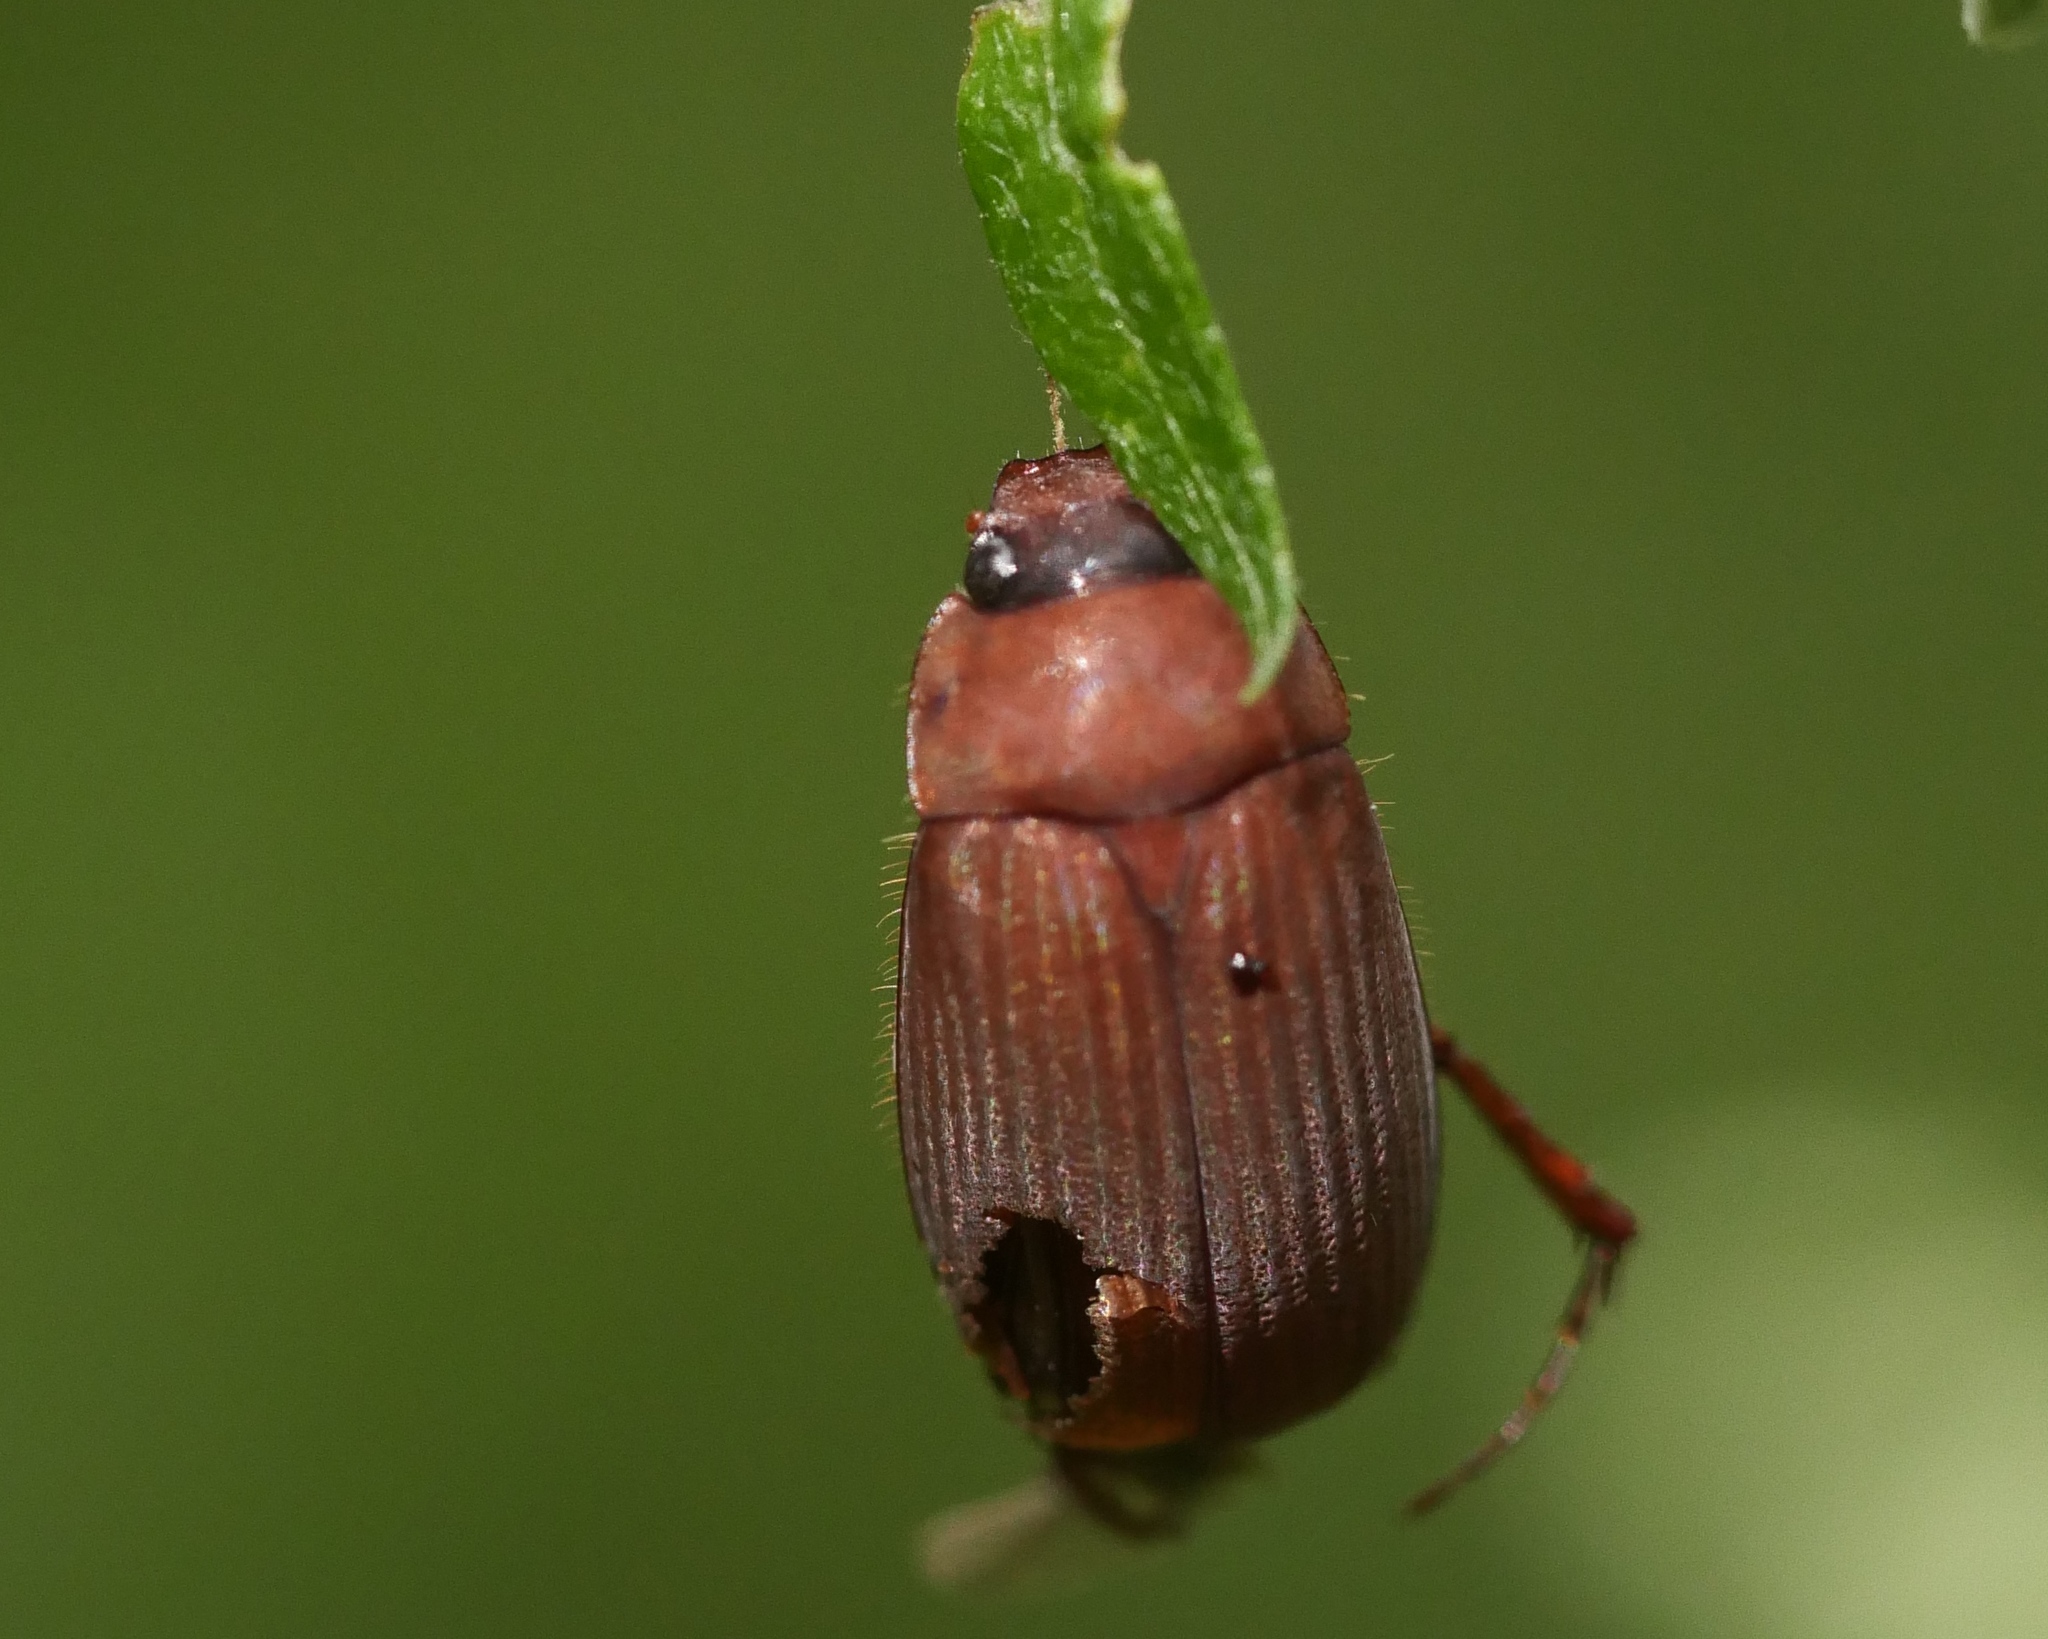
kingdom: Animalia
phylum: Arthropoda
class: Insecta
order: Coleoptera
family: Scarabaeidae
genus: Serica
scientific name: Serica brunnea
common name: Brown chafer
